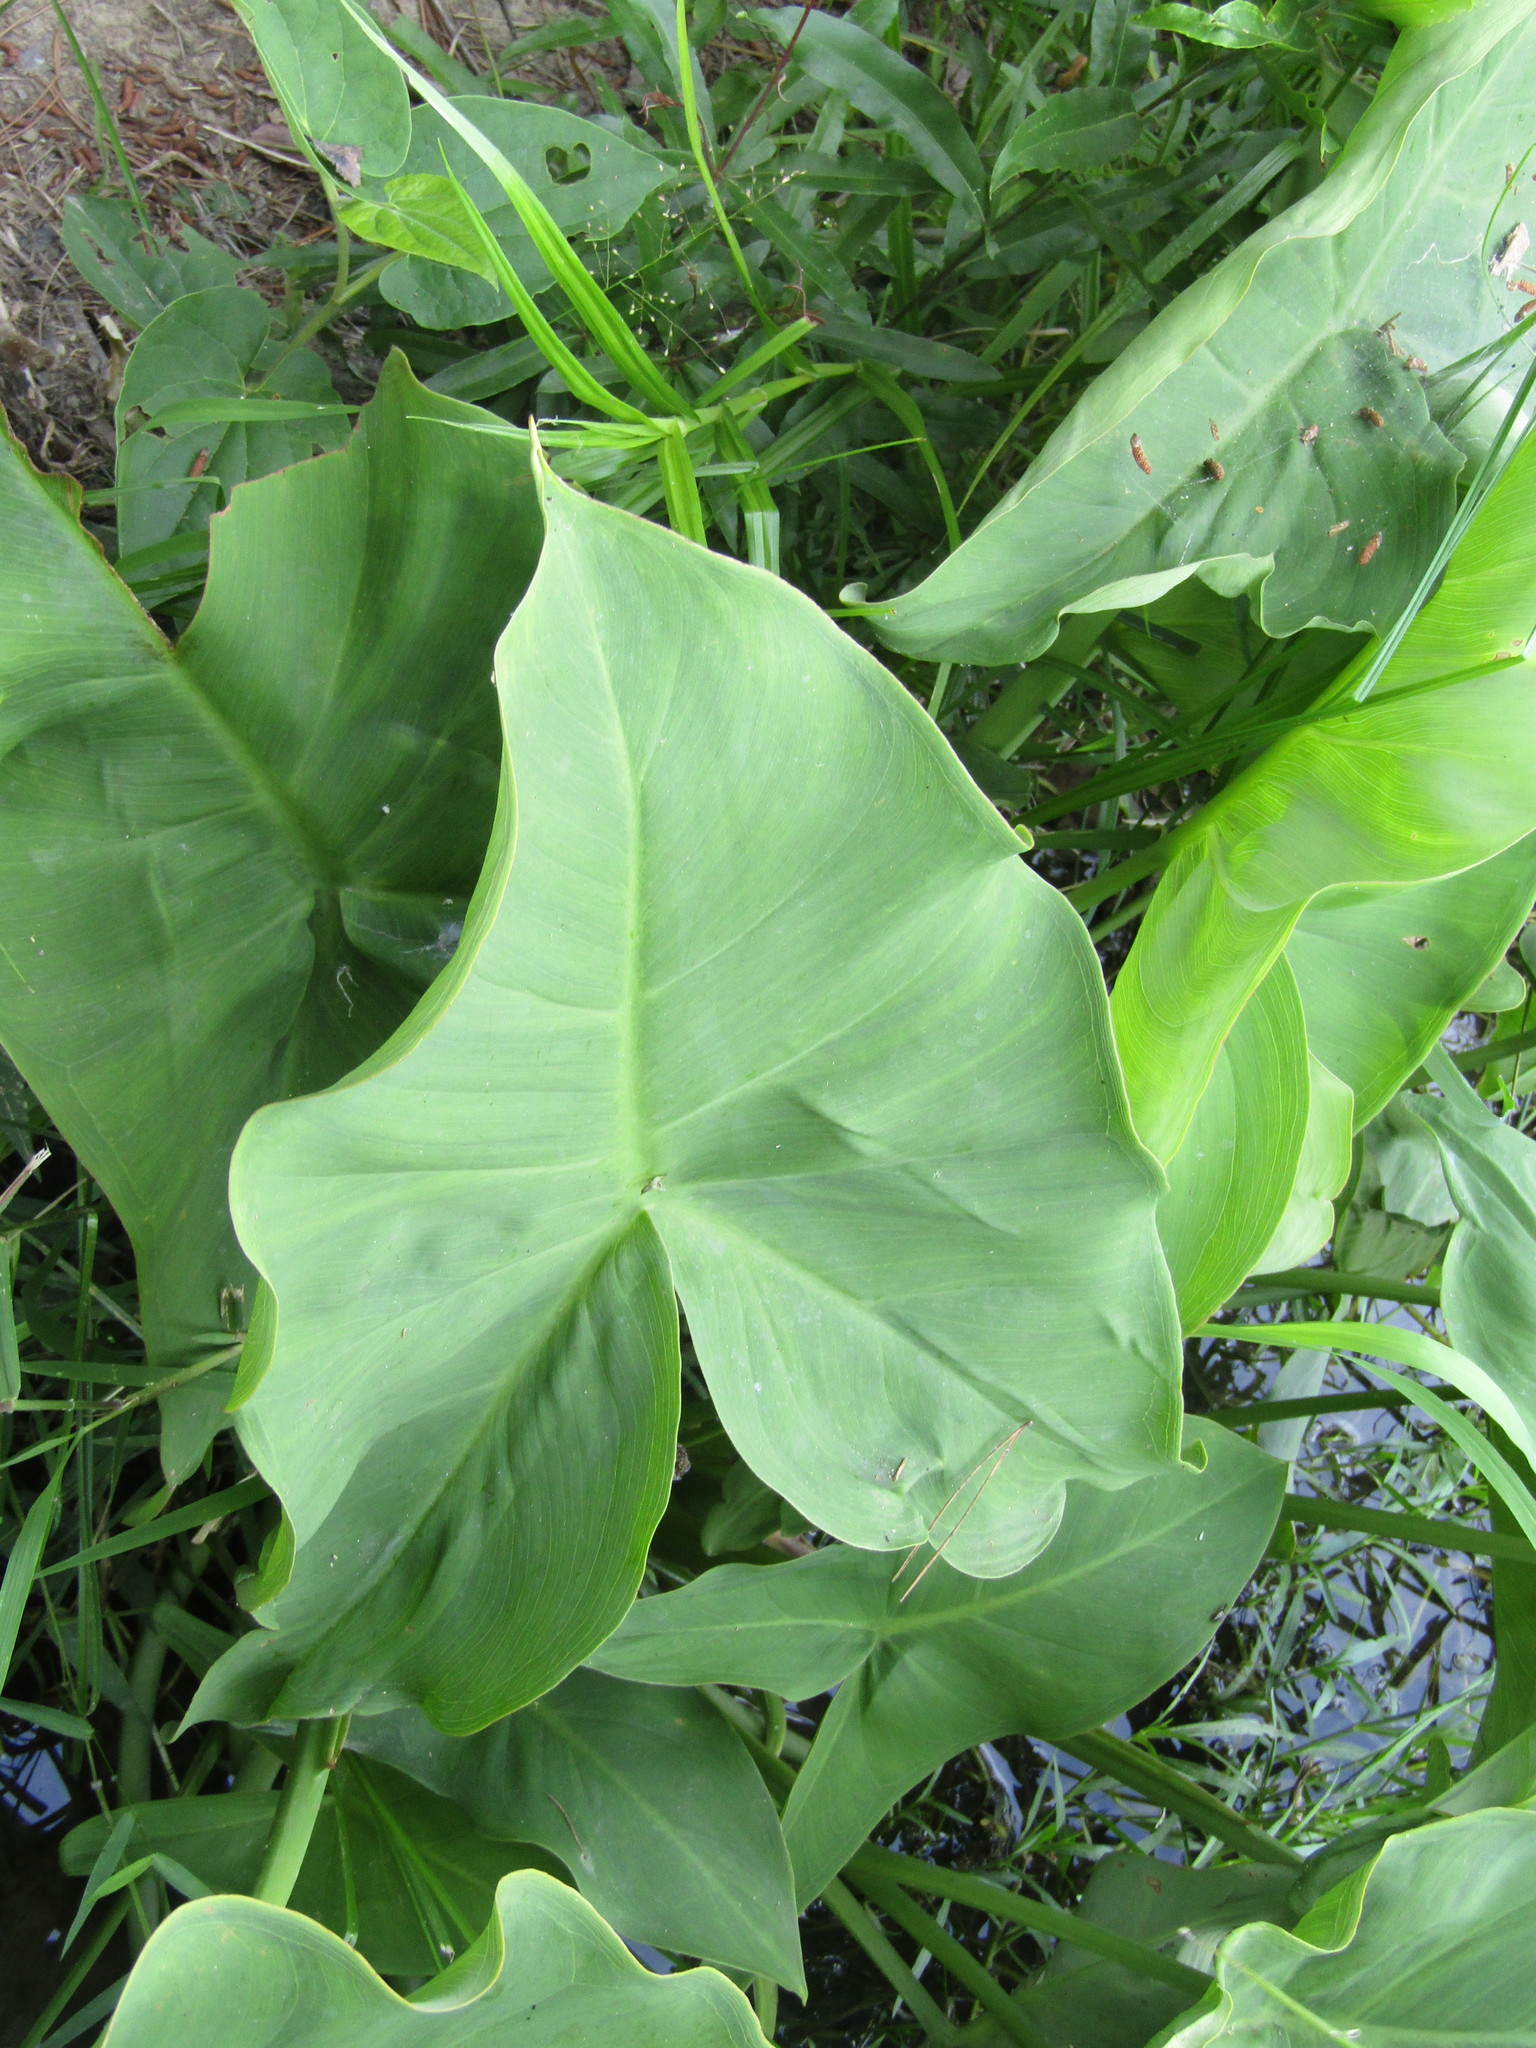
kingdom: Plantae
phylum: Tracheophyta
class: Liliopsida
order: Alismatales
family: Araceae
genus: Peltandra
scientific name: Peltandra virginica
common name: Arrow arum
